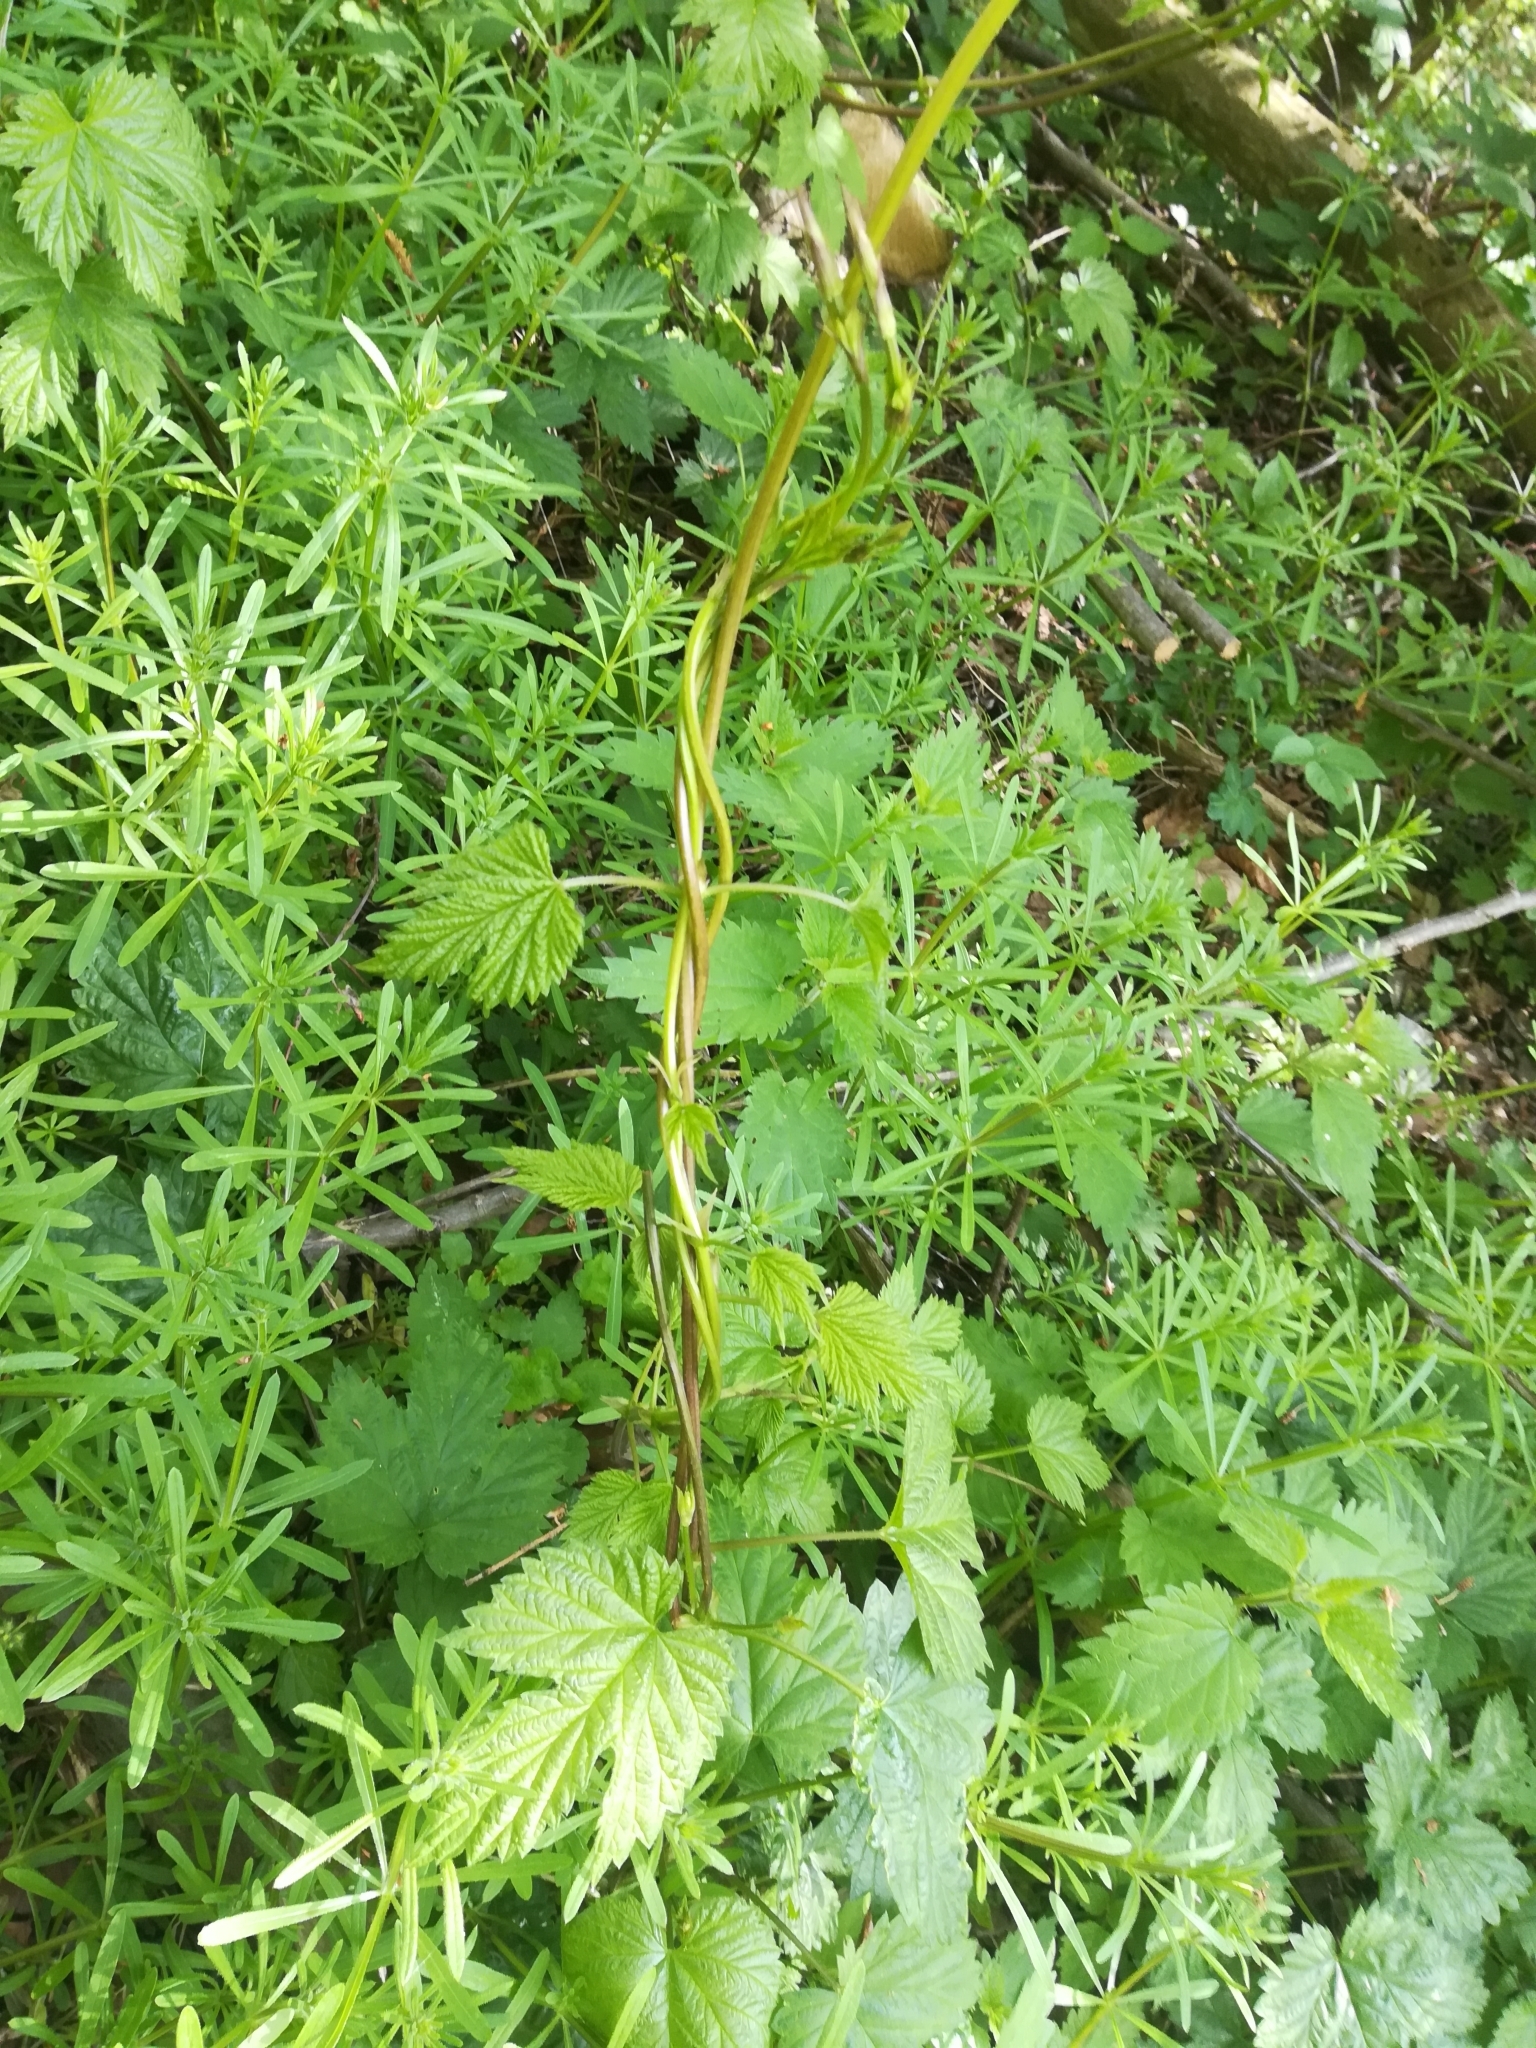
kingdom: Plantae
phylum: Tracheophyta
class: Magnoliopsida
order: Rosales
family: Cannabaceae
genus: Humulus
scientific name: Humulus lupulus
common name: Hop
